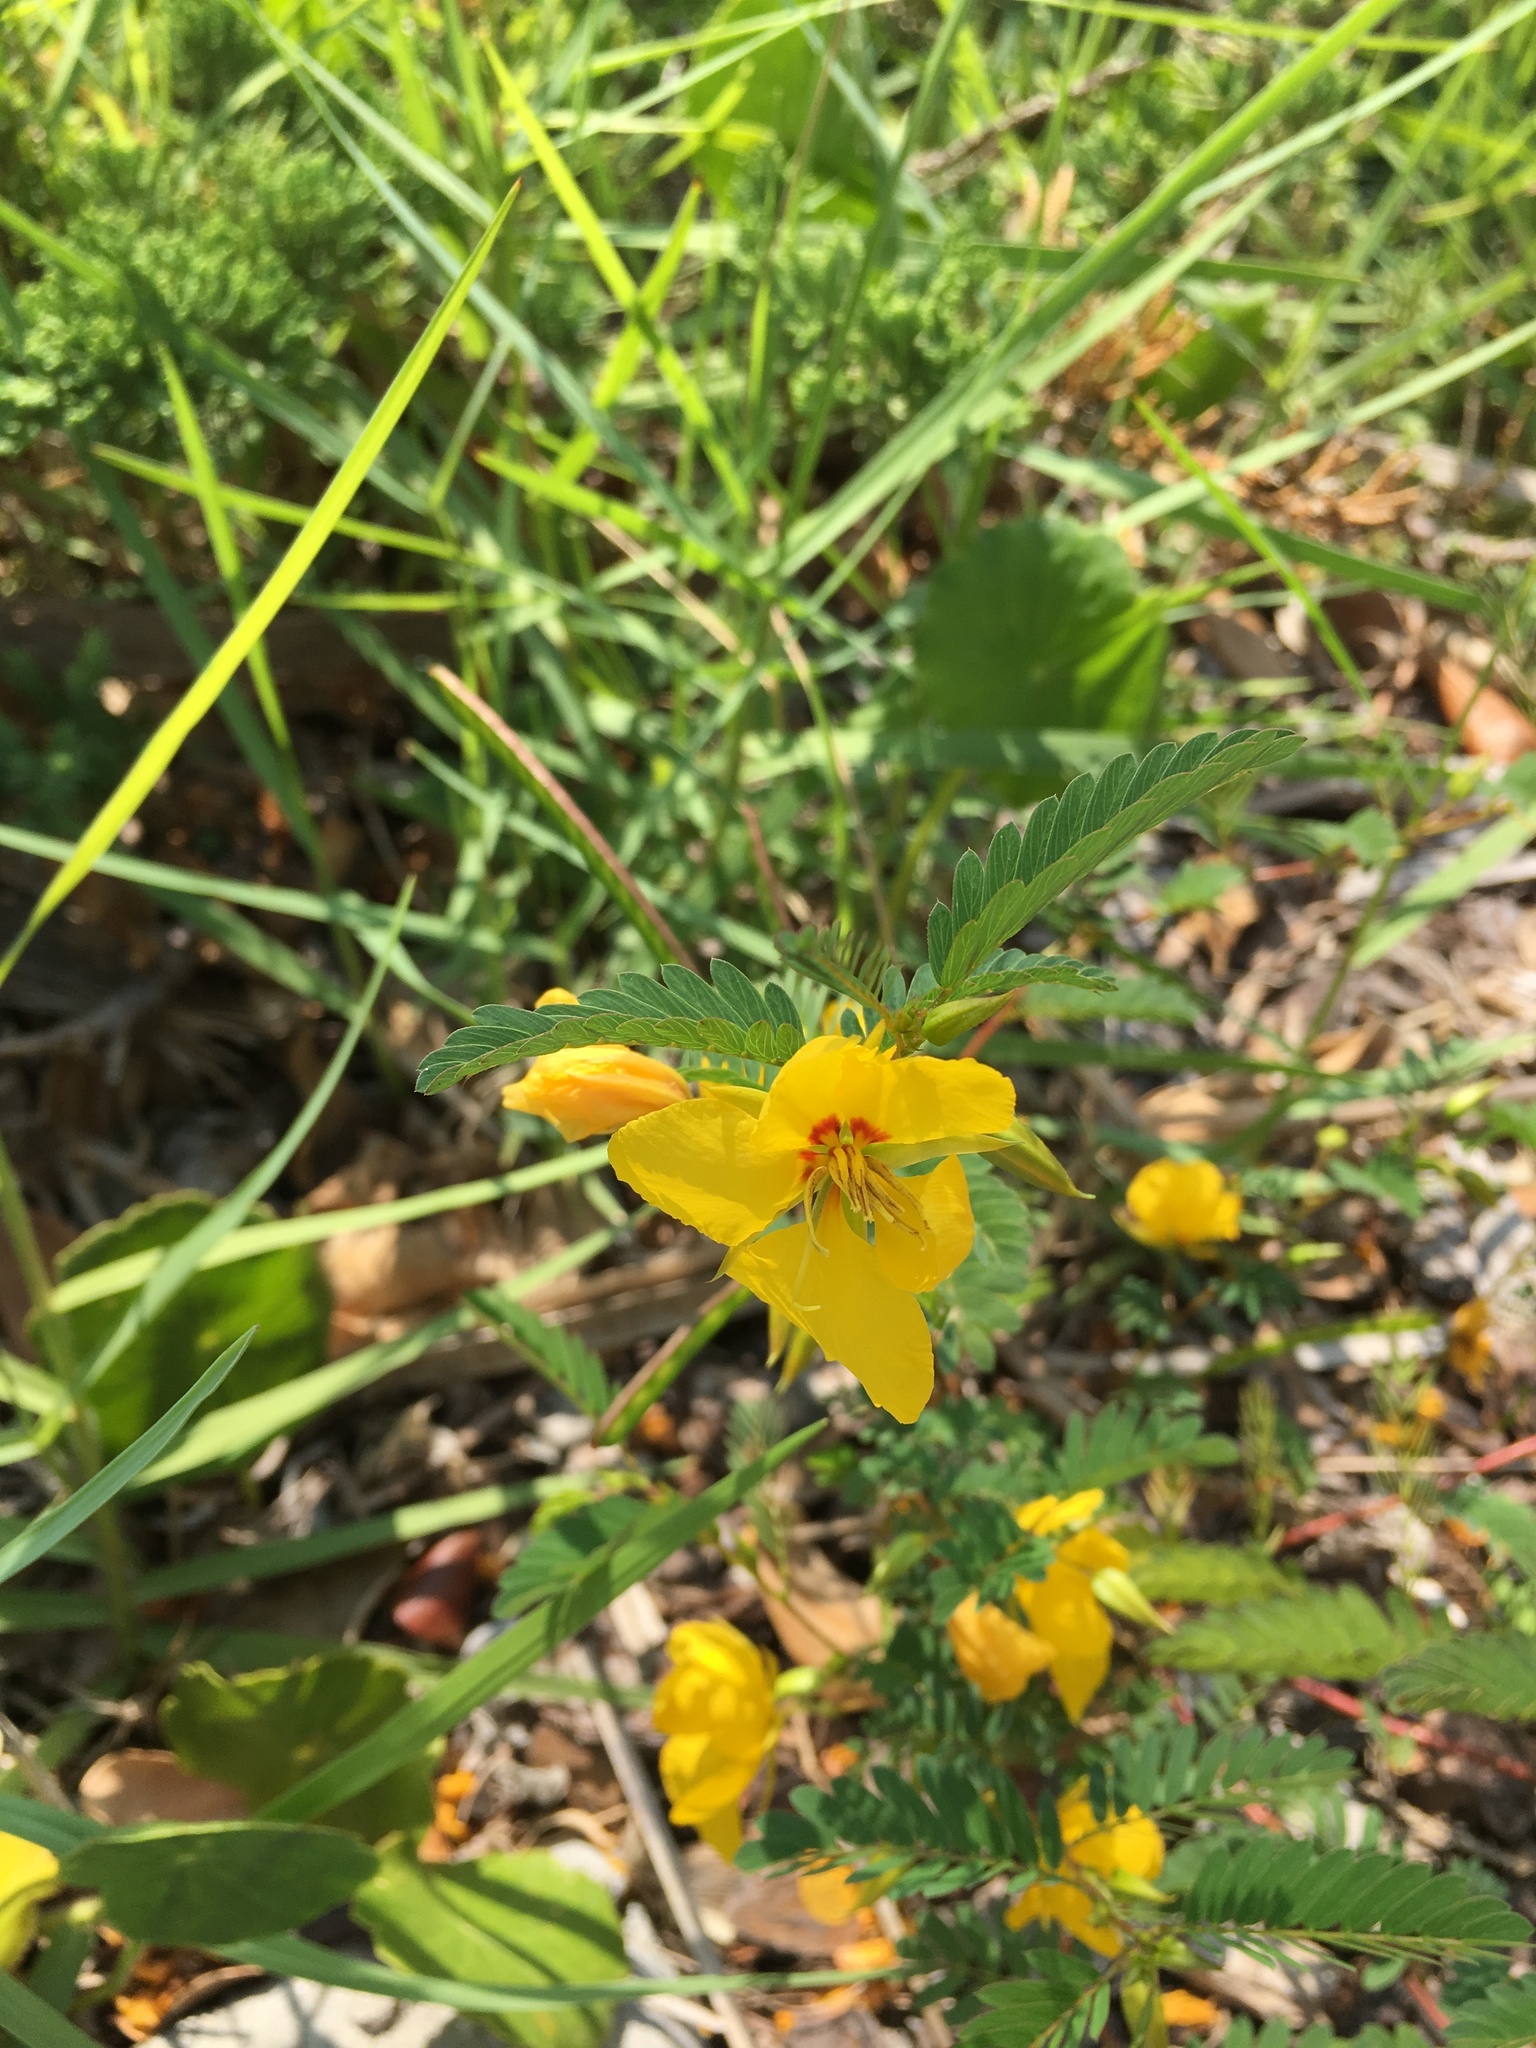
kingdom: Plantae
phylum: Tracheophyta
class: Magnoliopsida
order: Fabales
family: Fabaceae
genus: Chamaecrista
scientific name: Chamaecrista fasciculata
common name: Golden cassia
